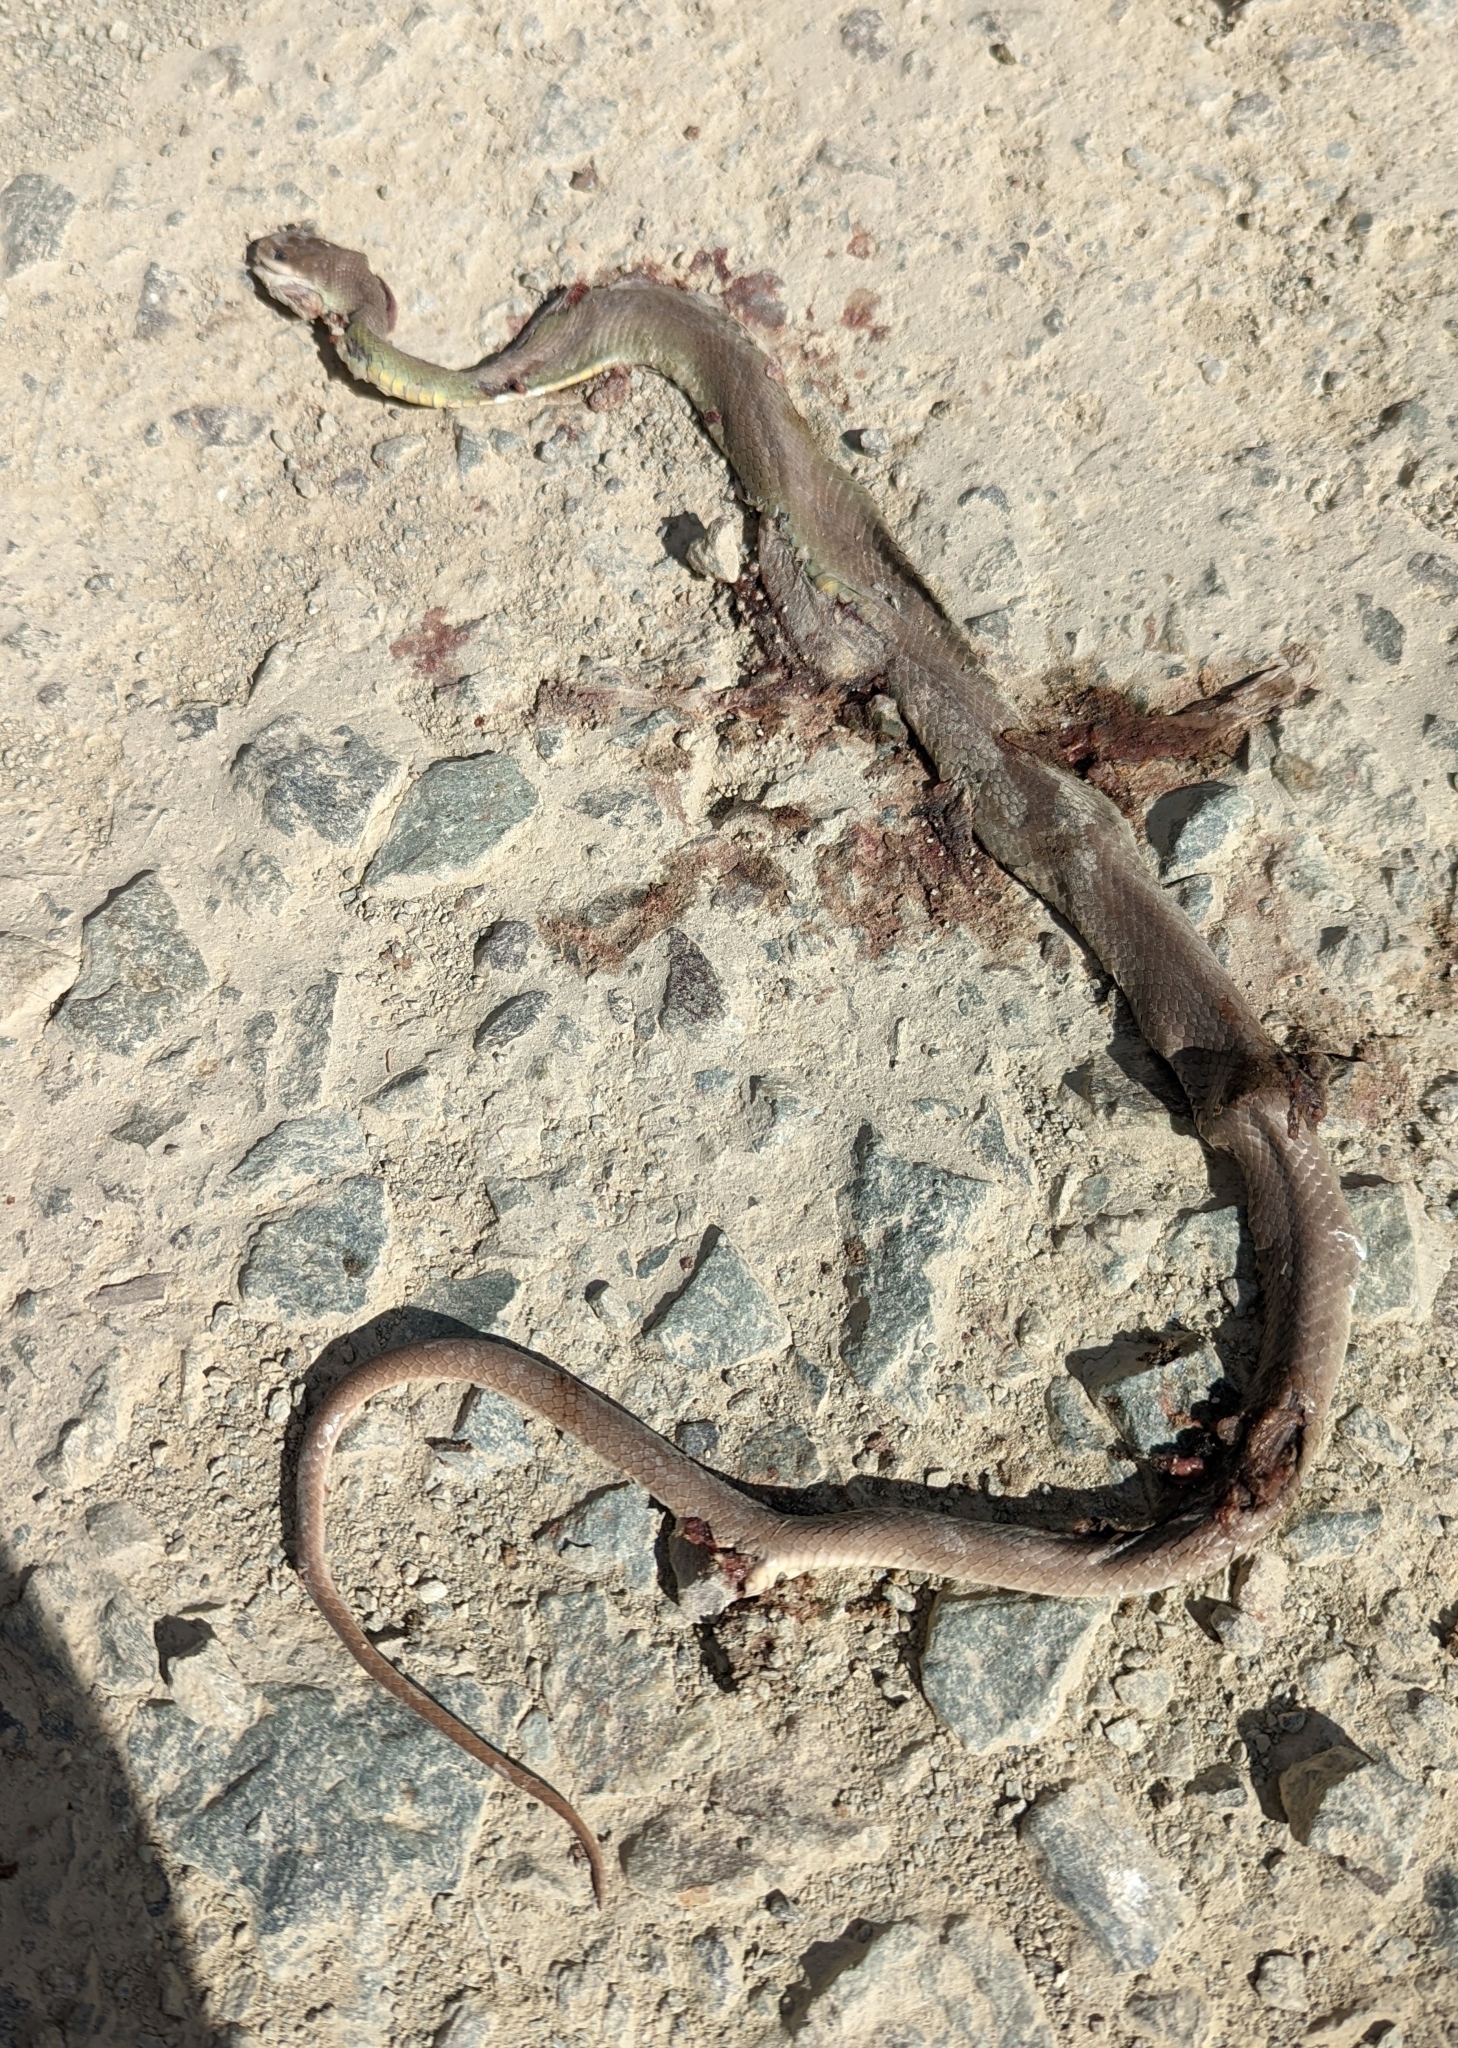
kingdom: Animalia
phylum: Chordata
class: Squamata
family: Colubridae
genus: Coluber
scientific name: Coluber constrictor
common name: Eastern racer
